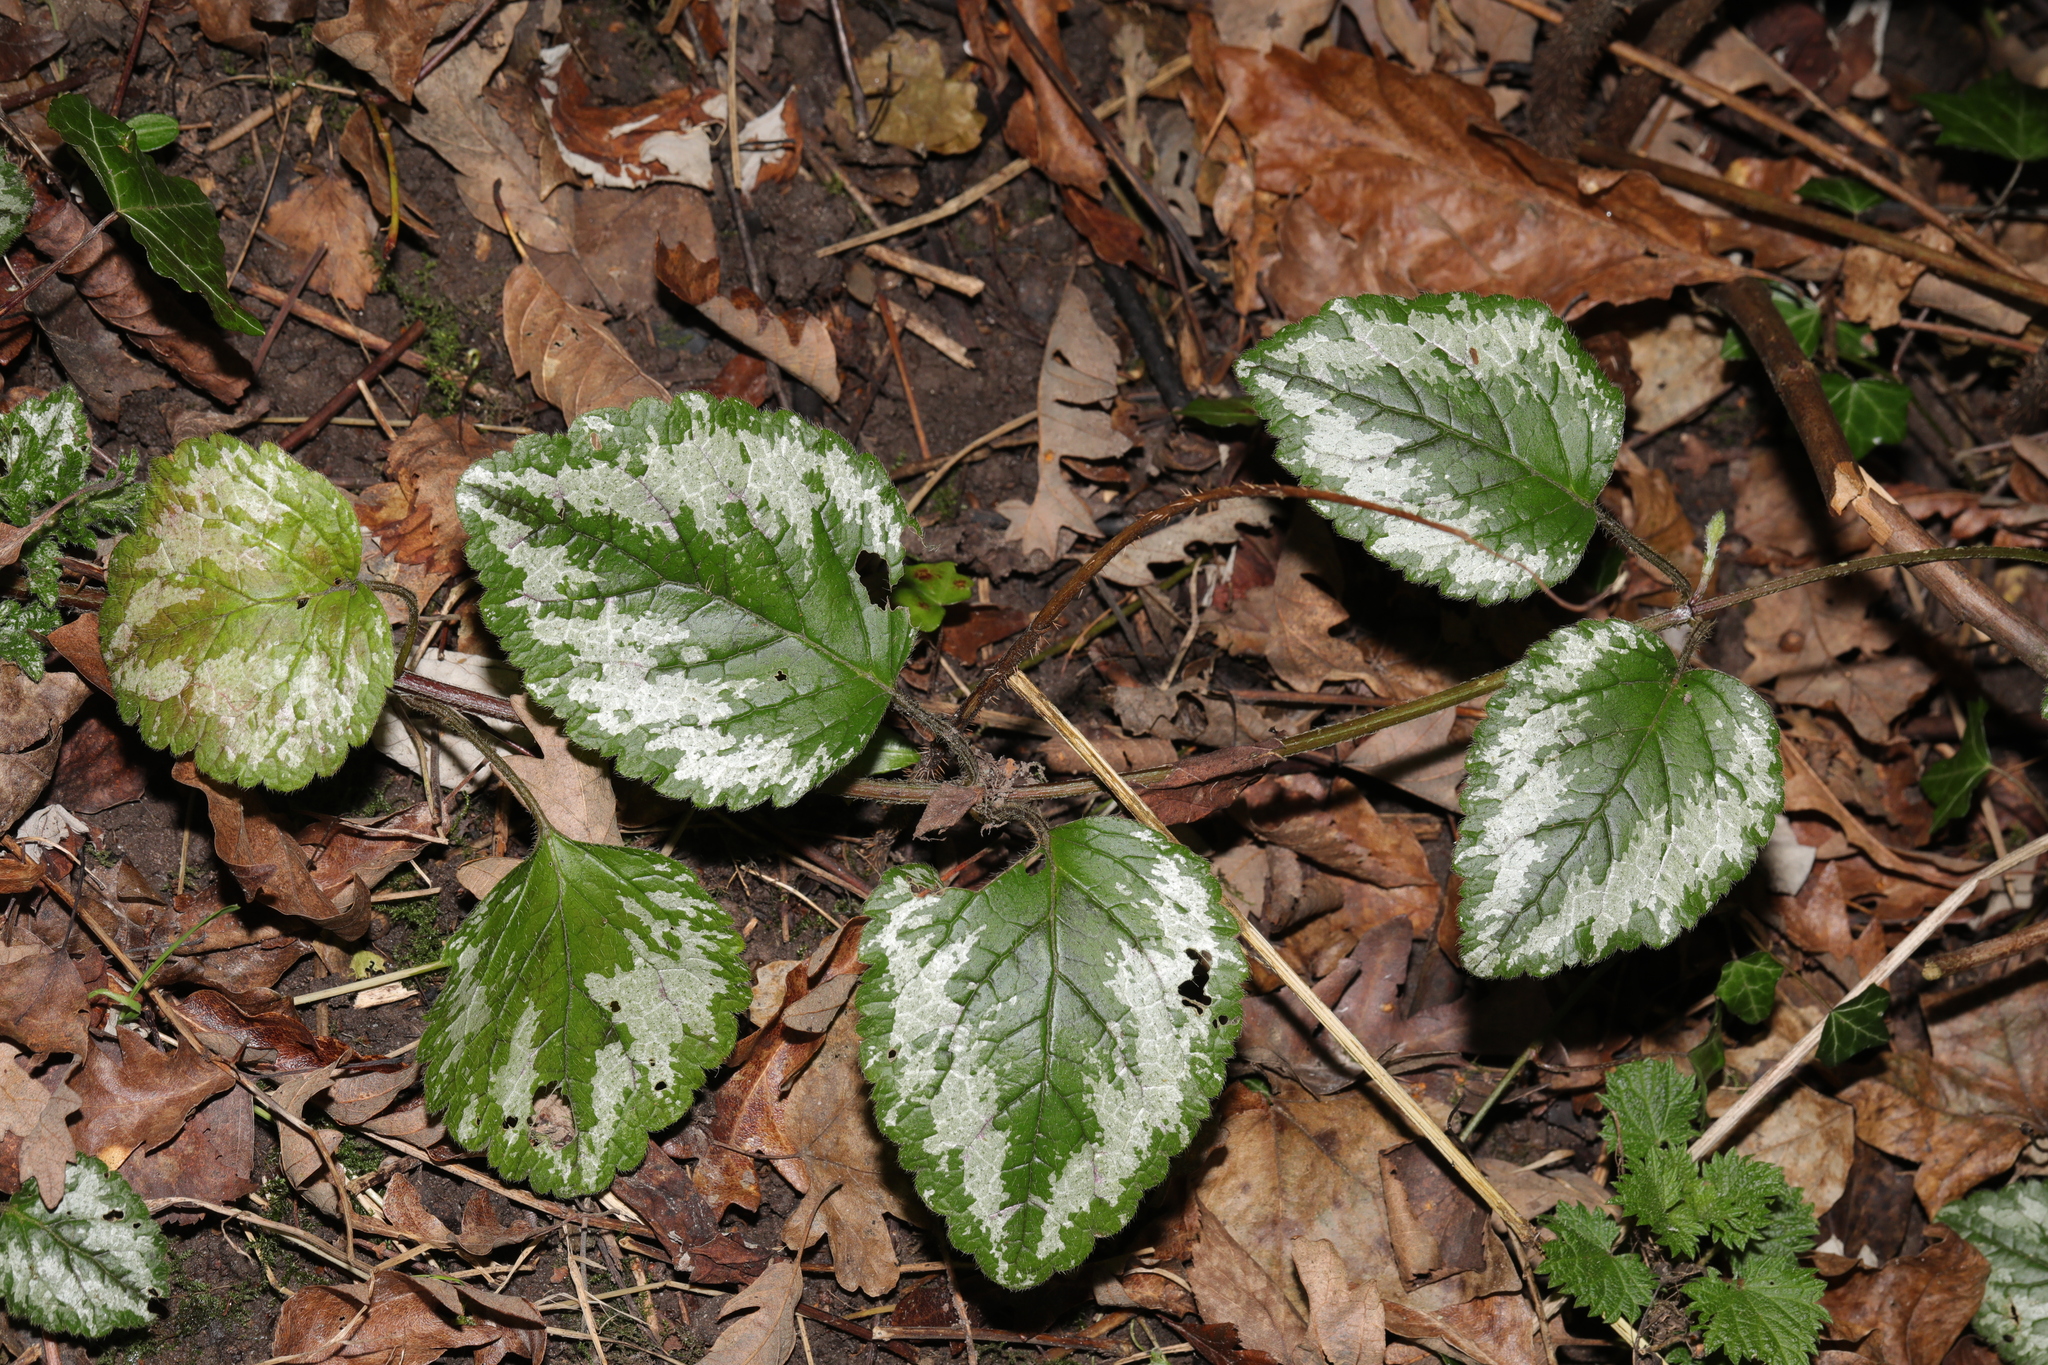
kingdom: Plantae
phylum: Tracheophyta
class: Magnoliopsida
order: Lamiales
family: Lamiaceae
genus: Lamium
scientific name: Lamium galeobdolon
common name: Yellow archangel
